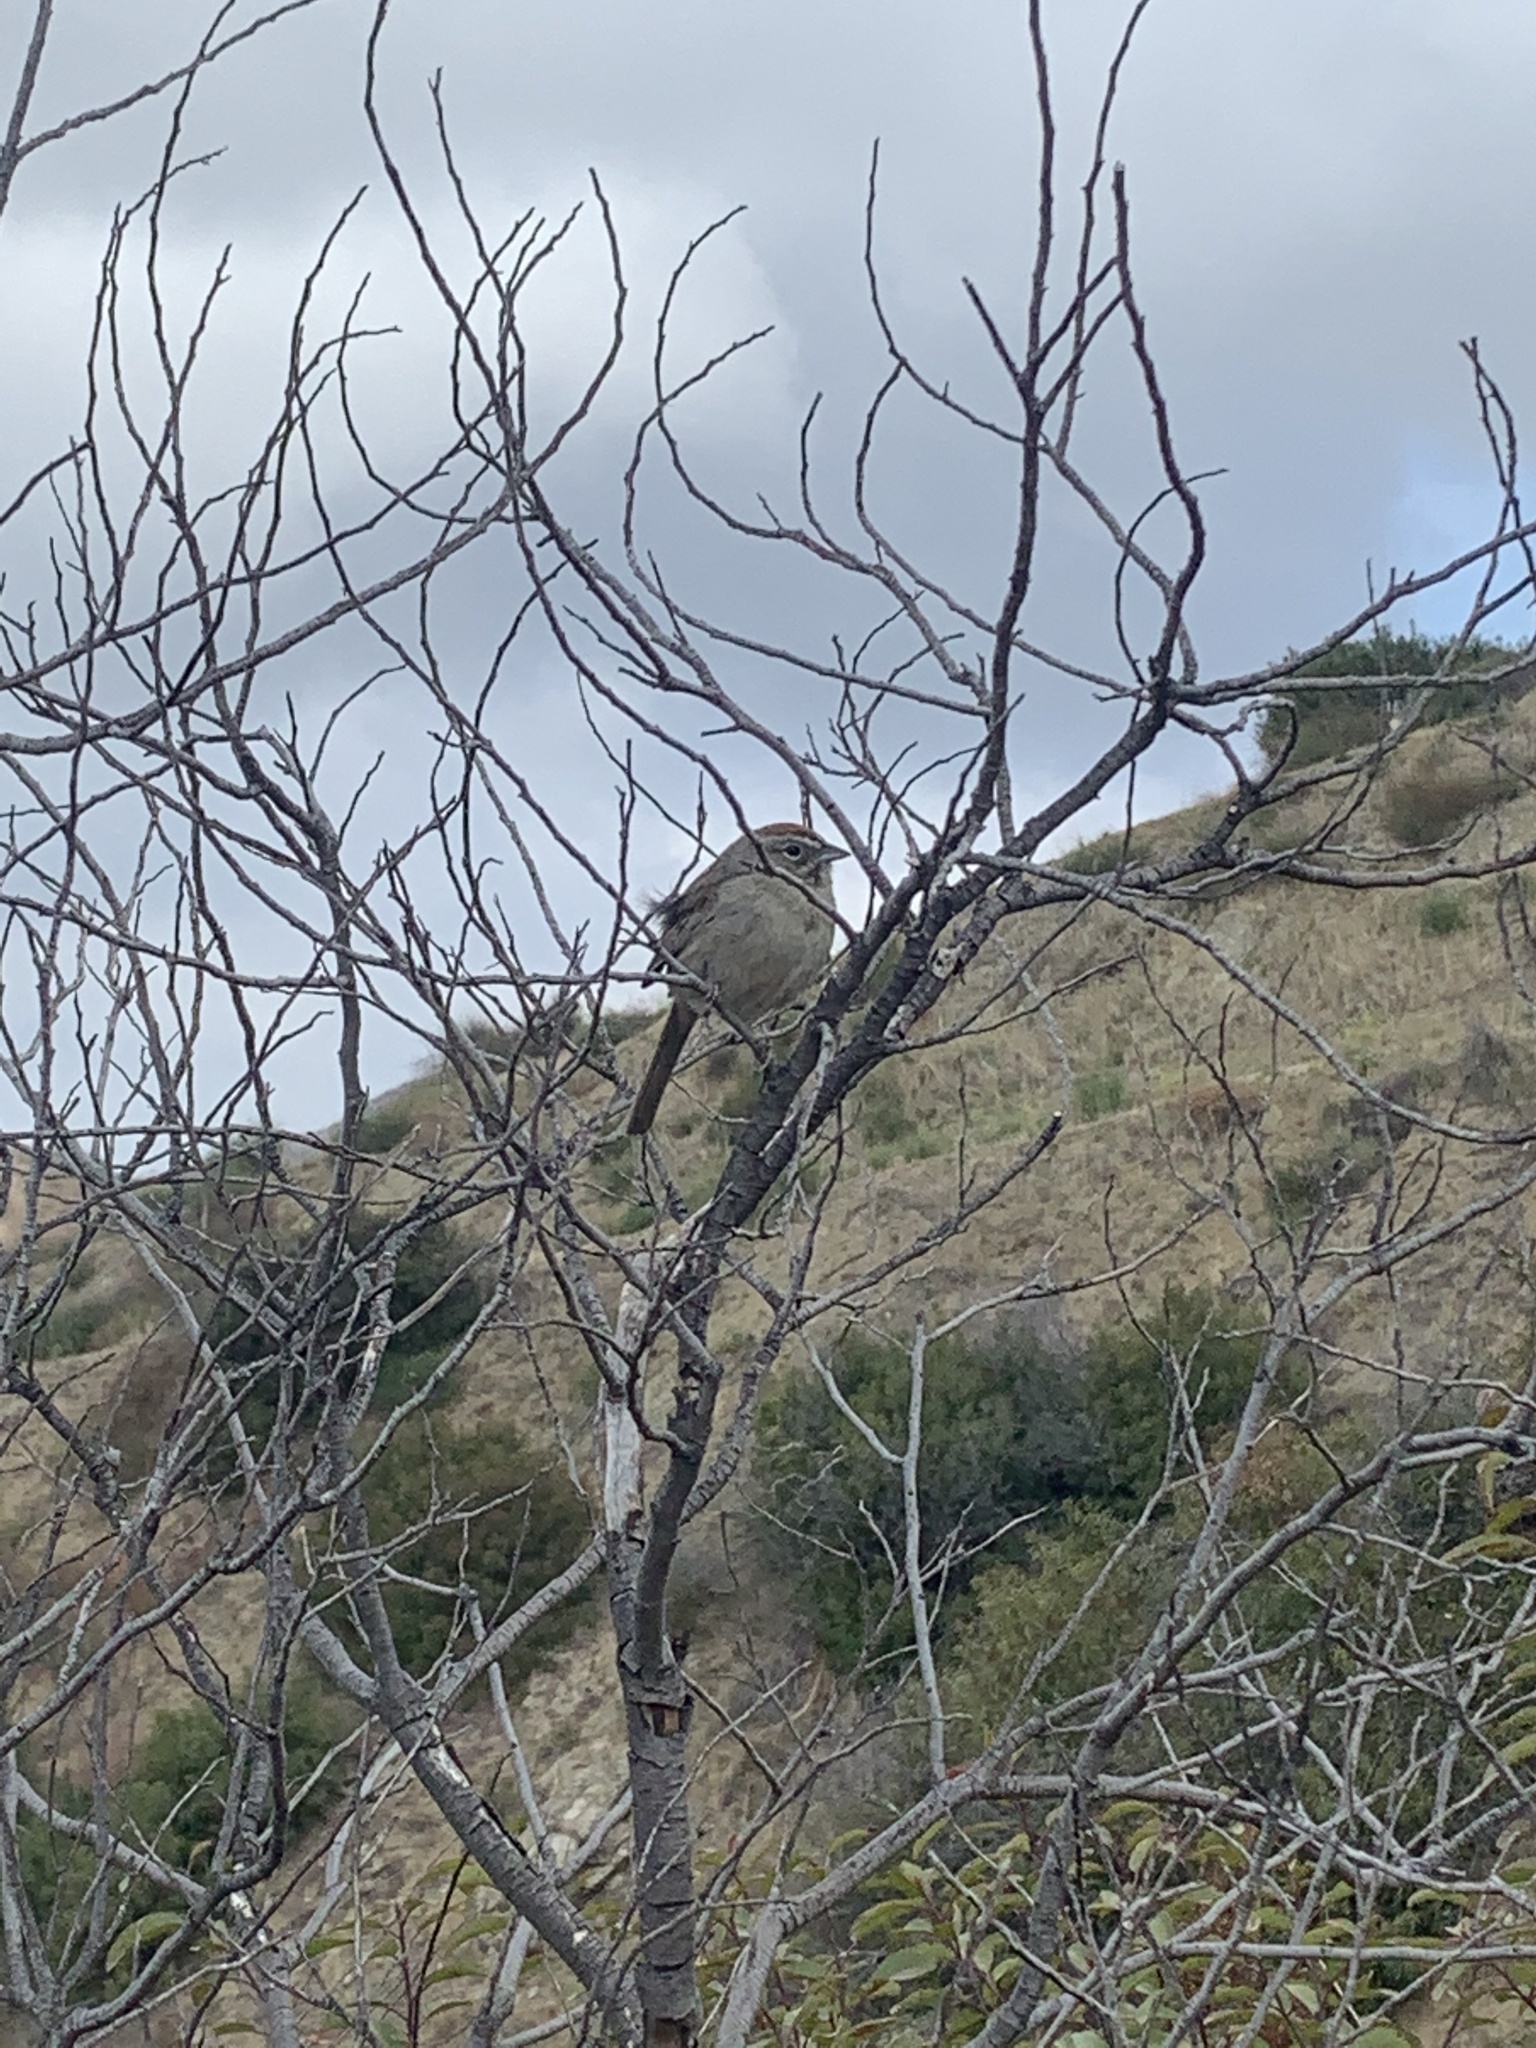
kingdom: Animalia
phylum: Chordata
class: Aves
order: Passeriformes
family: Passerellidae
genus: Aimophila
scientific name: Aimophila ruficeps
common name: Rufous-crowned sparrow
